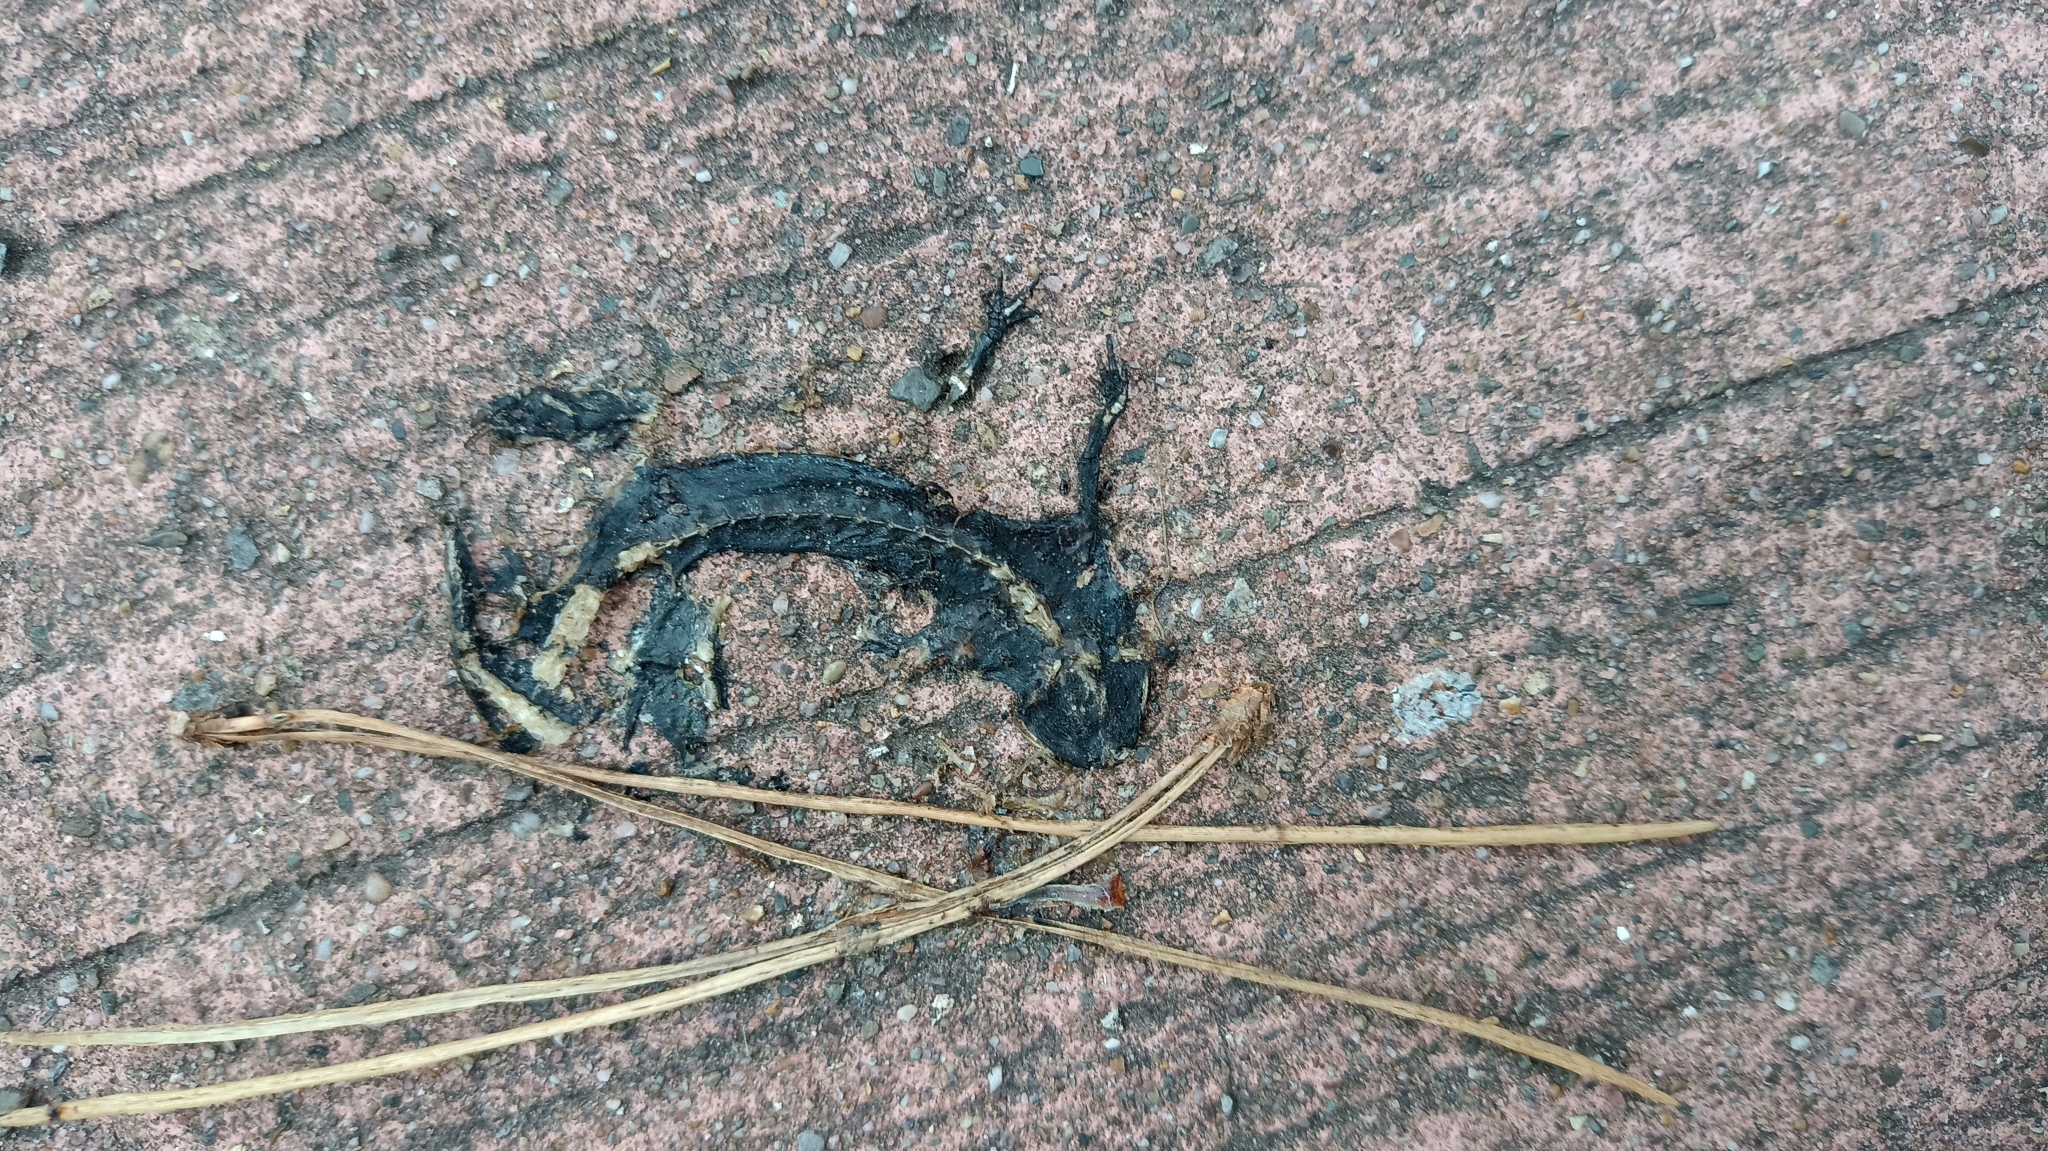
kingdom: Animalia
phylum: Chordata
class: Amphibia
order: Caudata
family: Salamandridae
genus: Ichthyosaura
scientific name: Ichthyosaura alpestris
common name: Alpine newt
